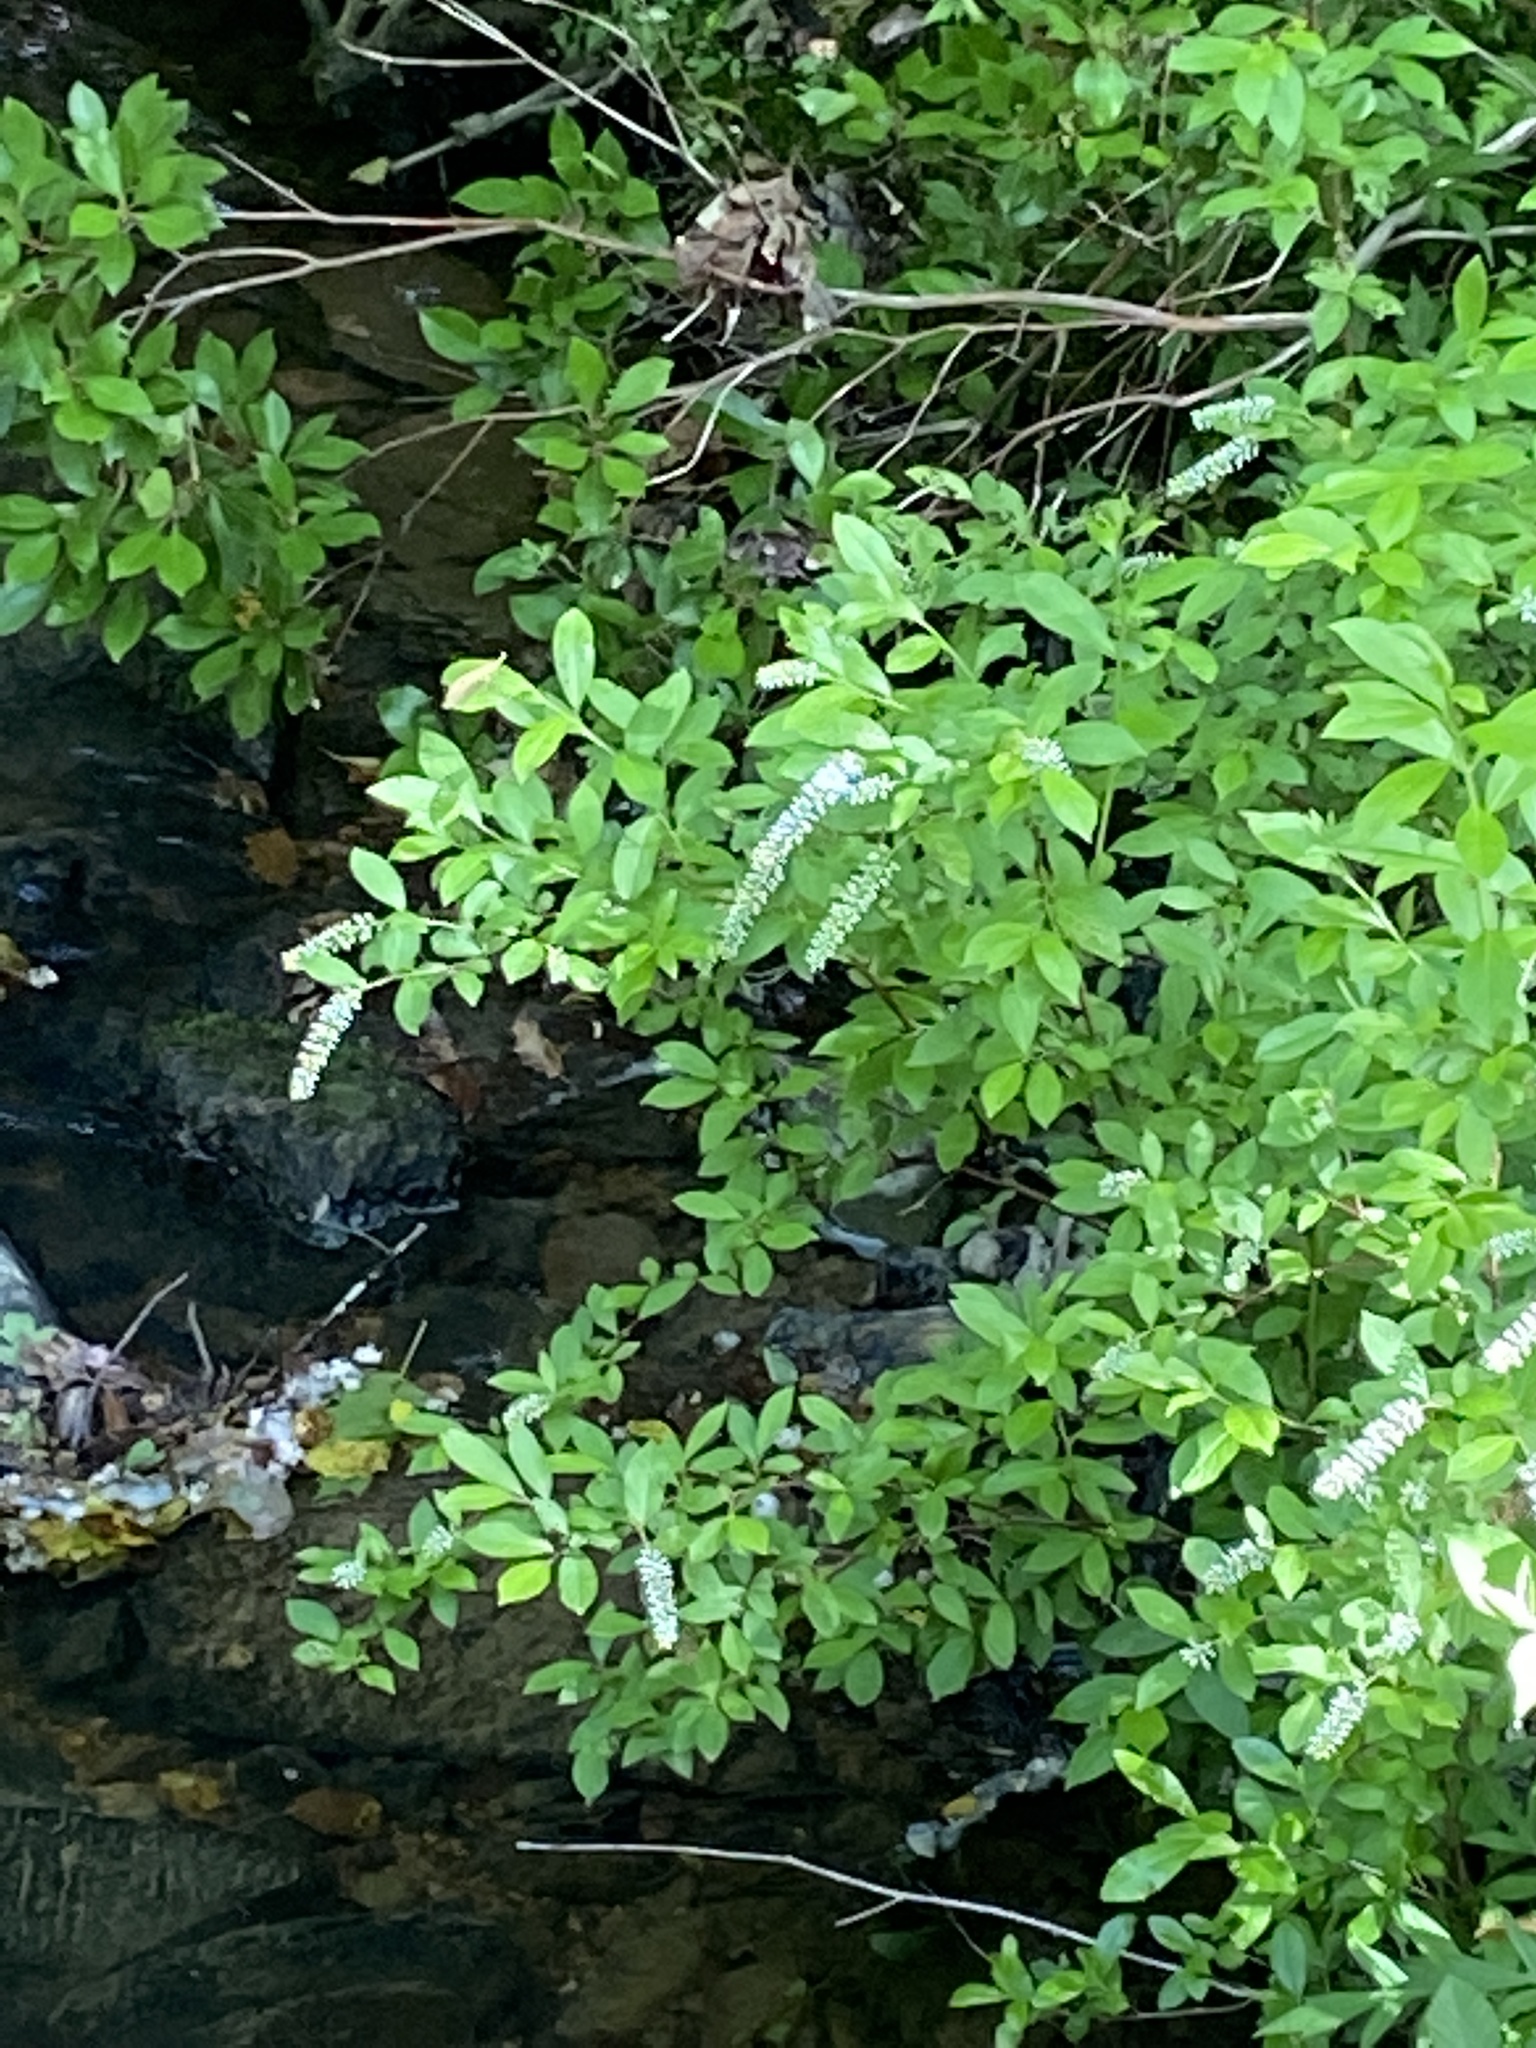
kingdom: Plantae
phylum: Tracheophyta
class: Magnoliopsida
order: Saxifragales
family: Iteaceae
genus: Itea
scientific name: Itea virginica
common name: Sweetspire
